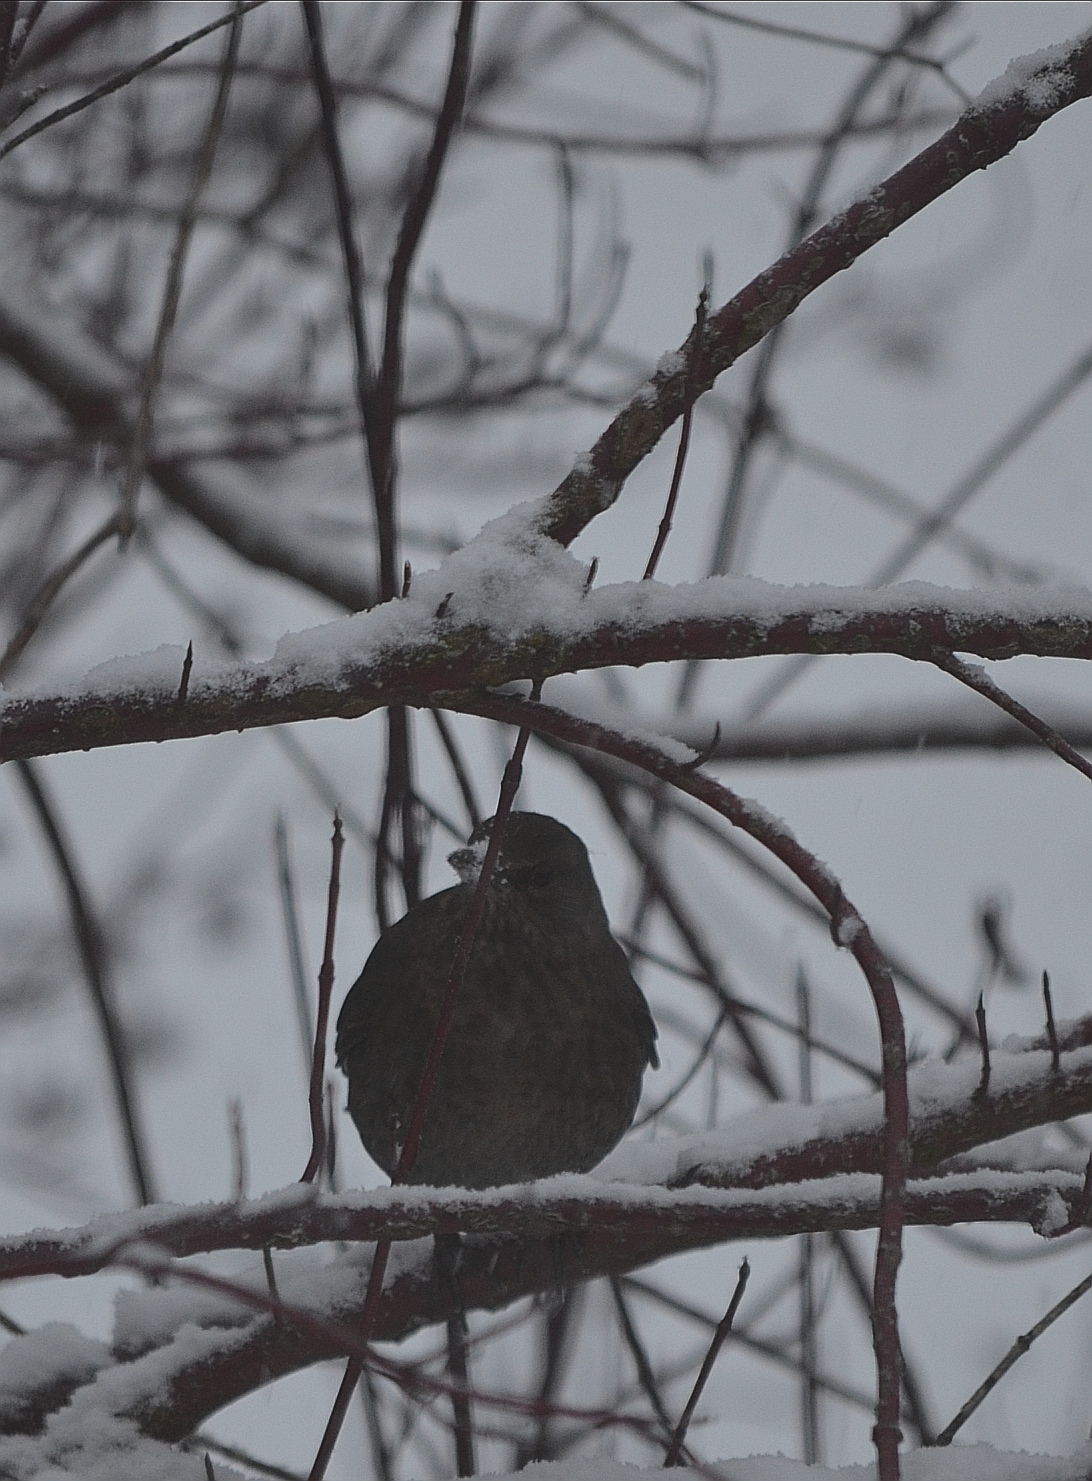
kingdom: Animalia
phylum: Chordata
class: Aves
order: Passeriformes
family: Turdidae
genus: Turdus
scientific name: Turdus merula
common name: Common blackbird
